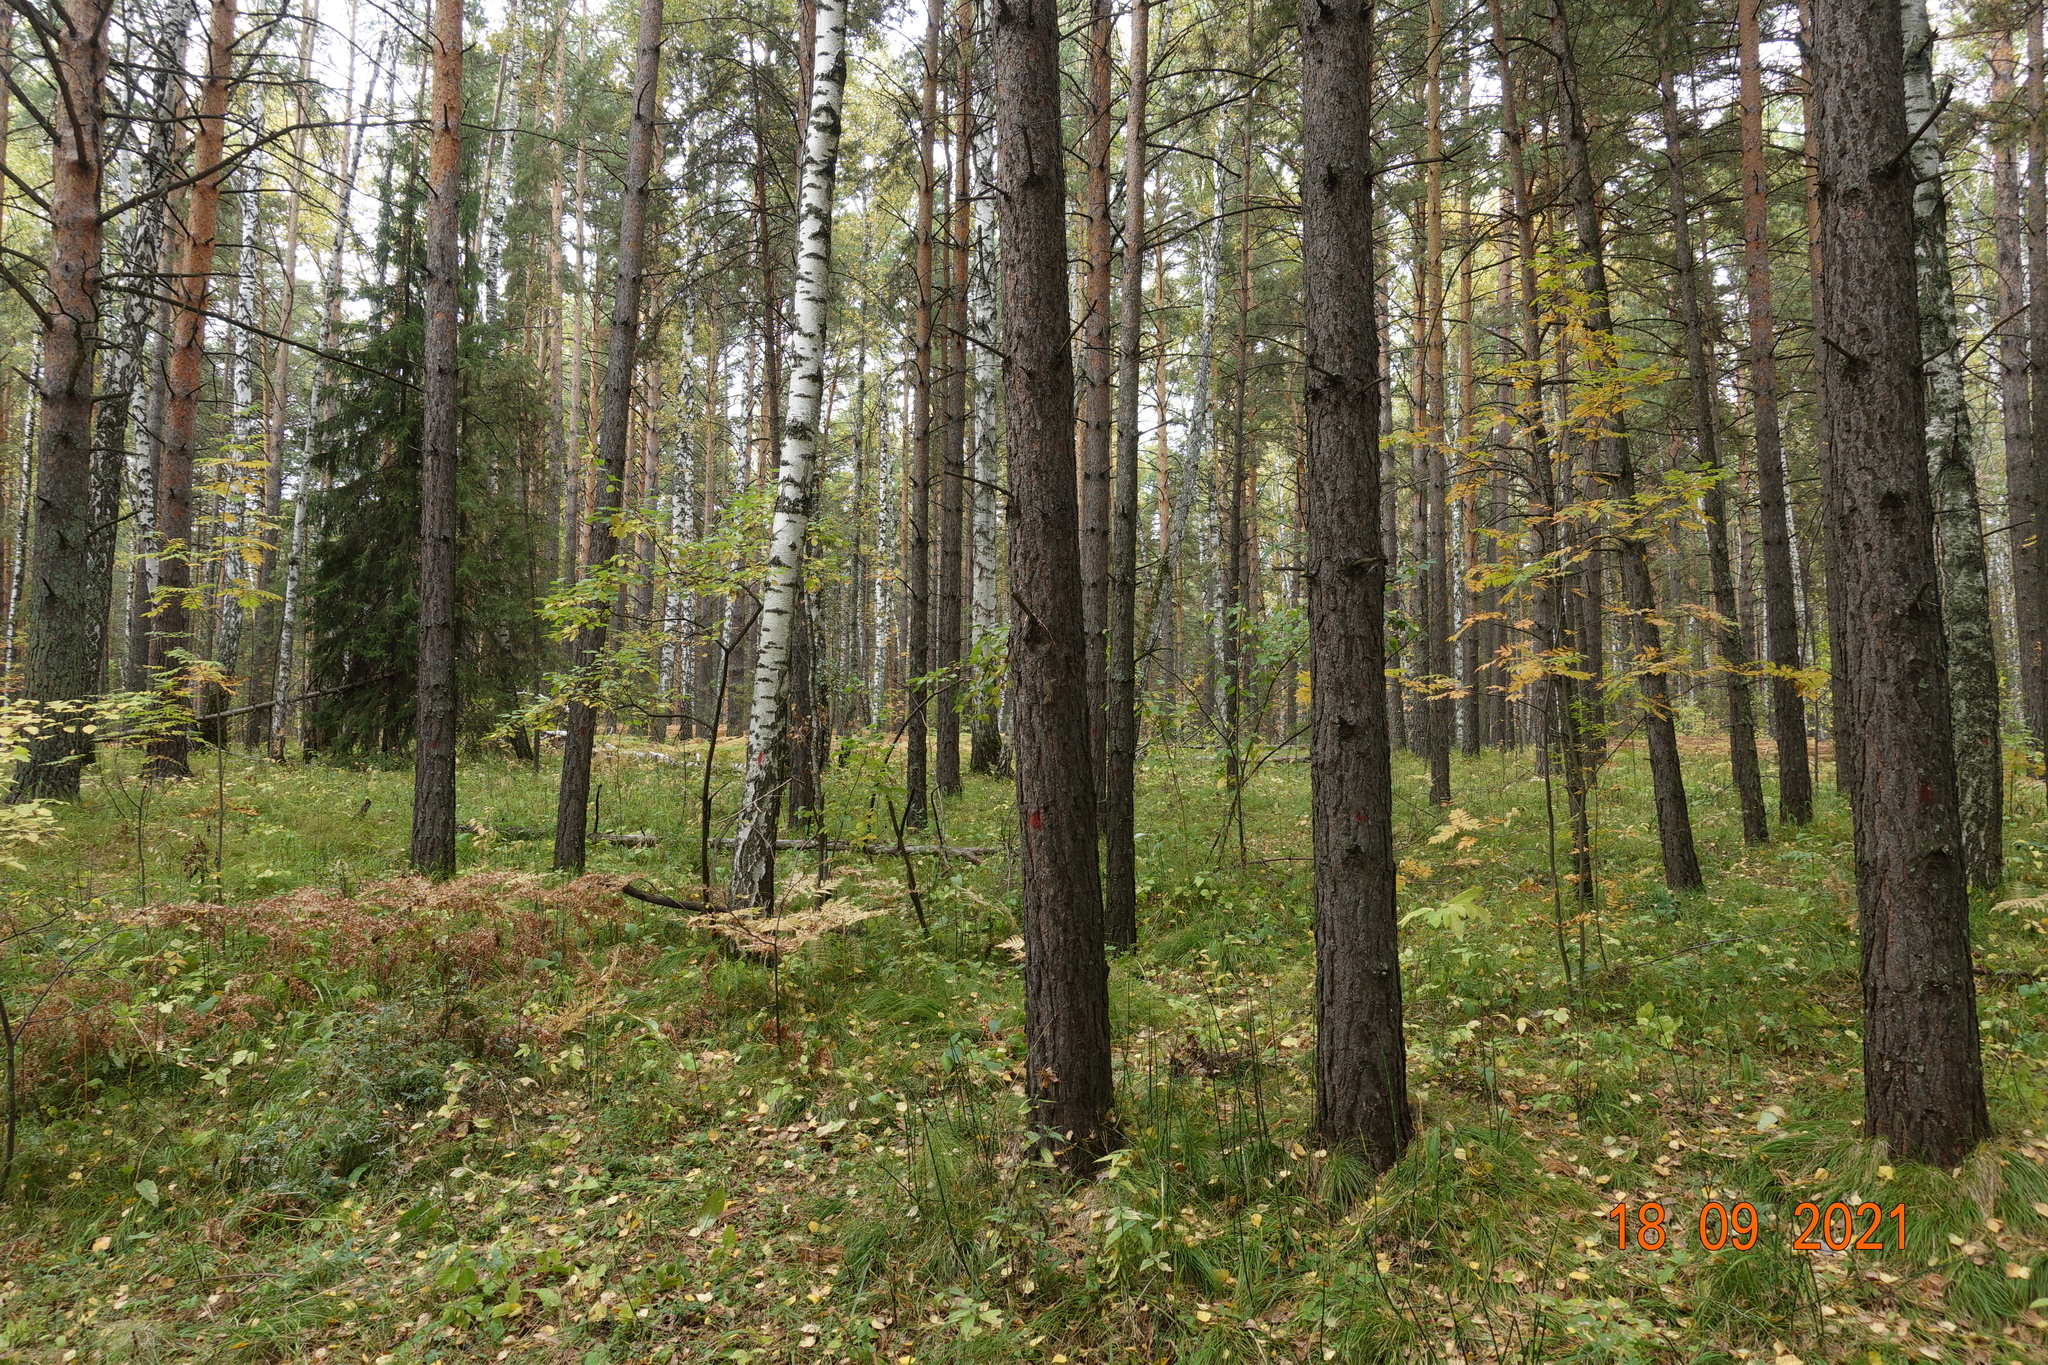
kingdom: Plantae
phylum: Tracheophyta
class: Pinopsida
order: Pinales
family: Pinaceae
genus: Pinus
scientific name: Pinus sylvestris
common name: Scots pine
